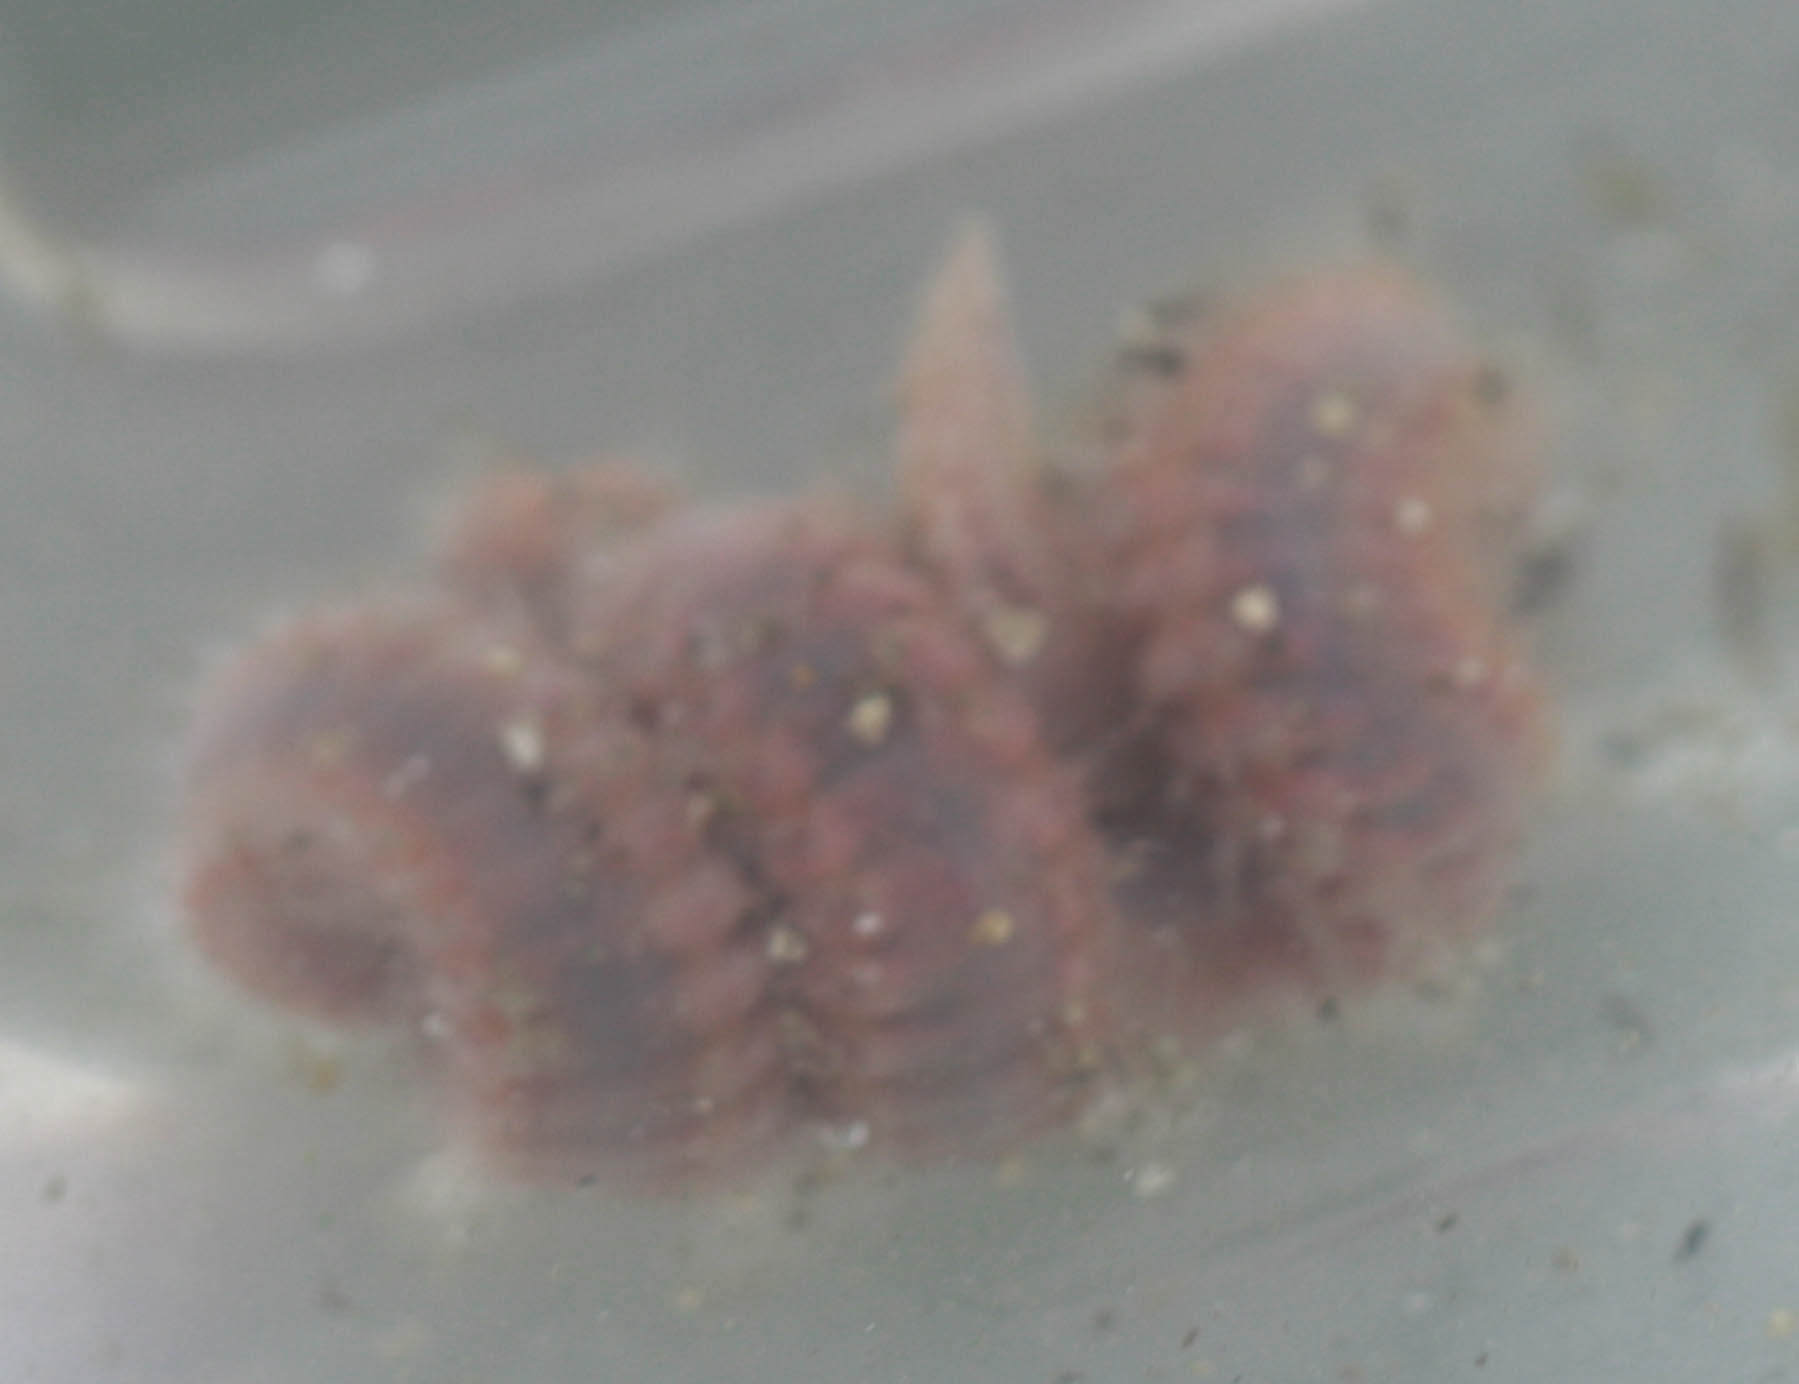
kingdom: Animalia
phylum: Annelida
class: Polychaeta
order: Amphinomida
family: Amphinomidae
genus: Pareurythoe
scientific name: Pareurythoe californica
